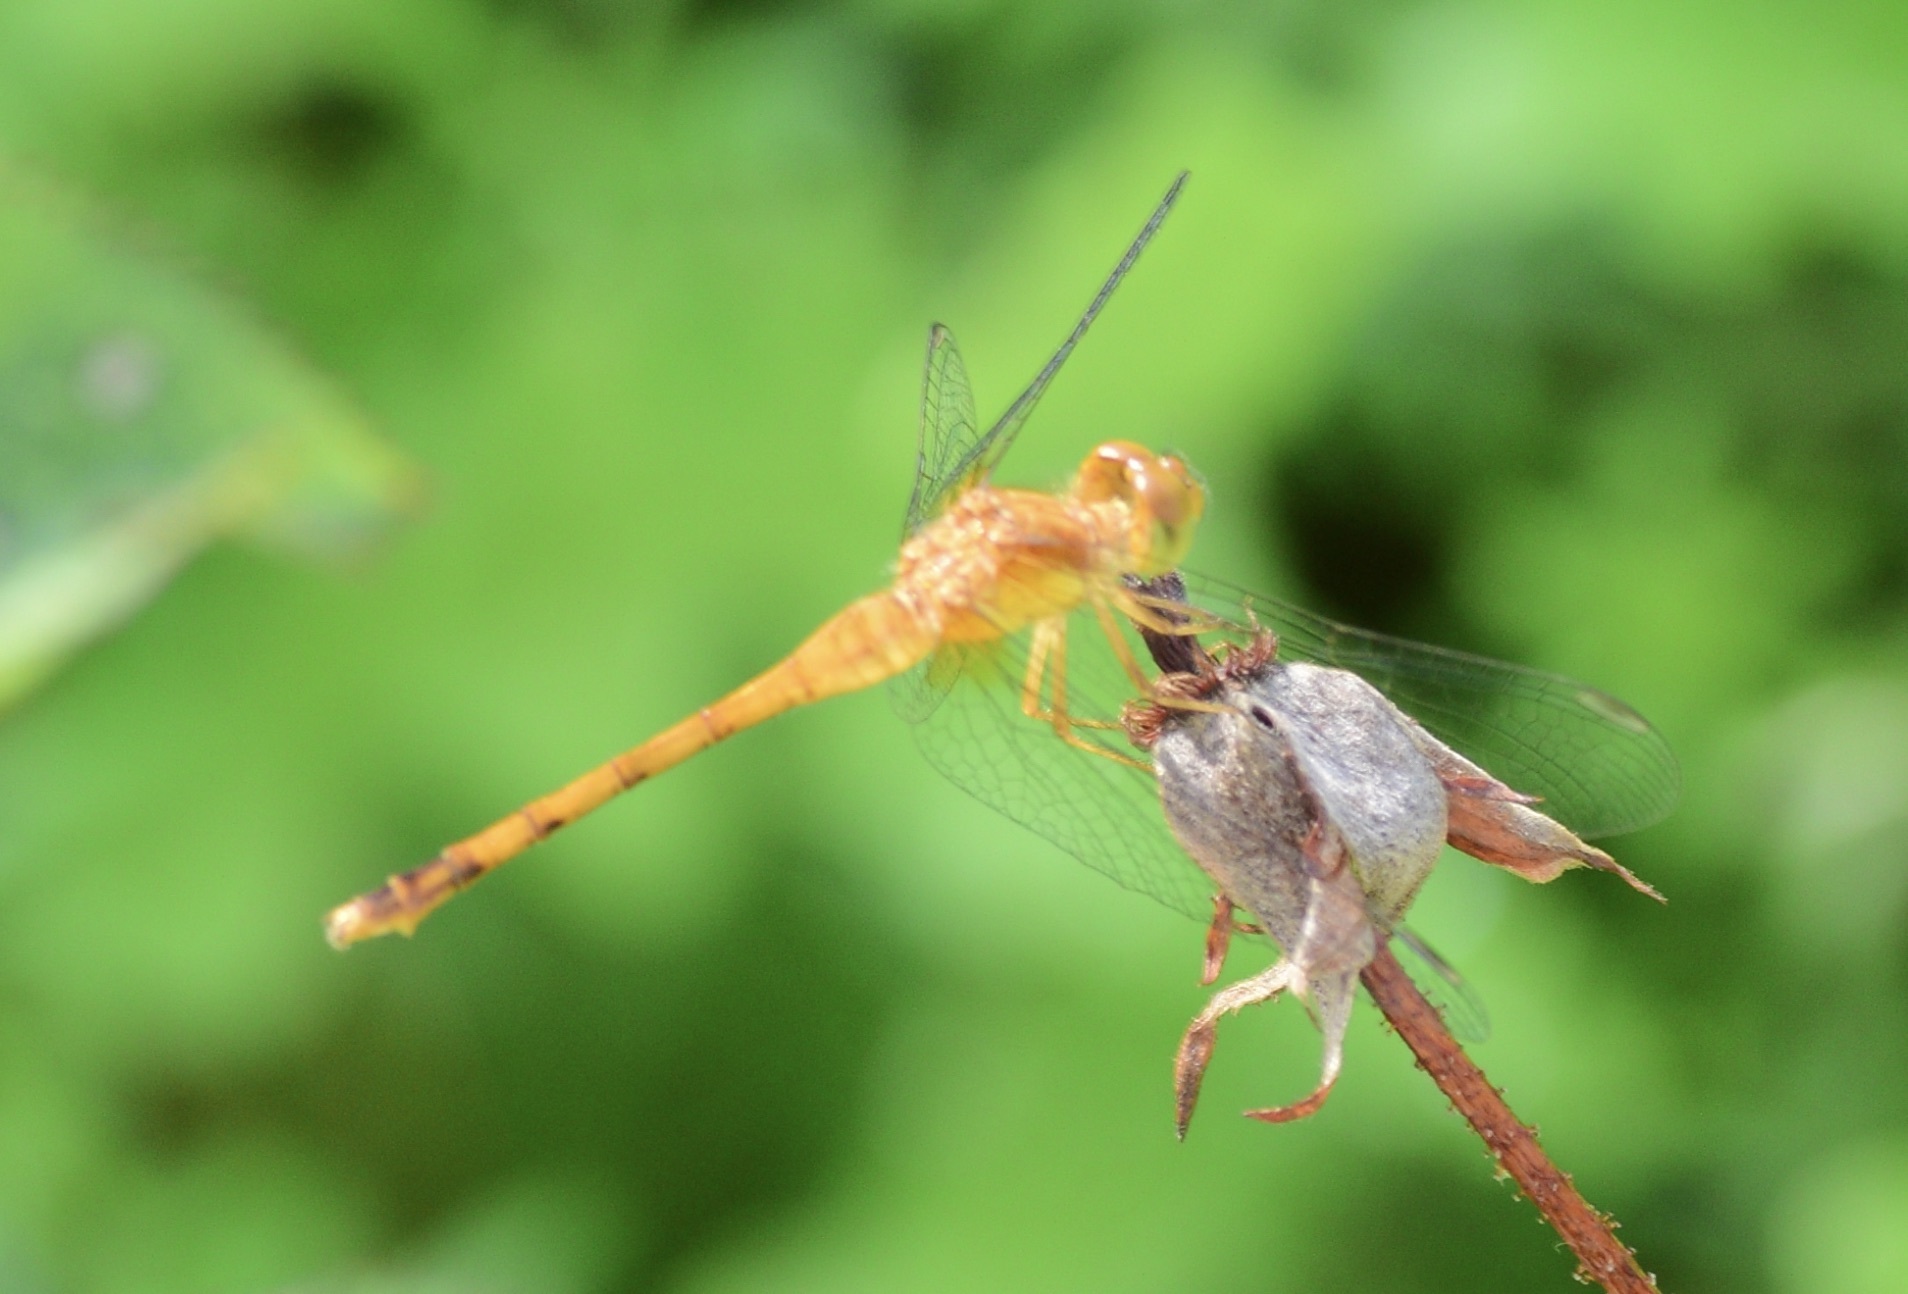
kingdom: Animalia
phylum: Arthropoda
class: Insecta
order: Odonata
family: Libellulidae
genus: Sympetrum
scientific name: Sympetrum vicinum
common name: Autumn meadowhawk
